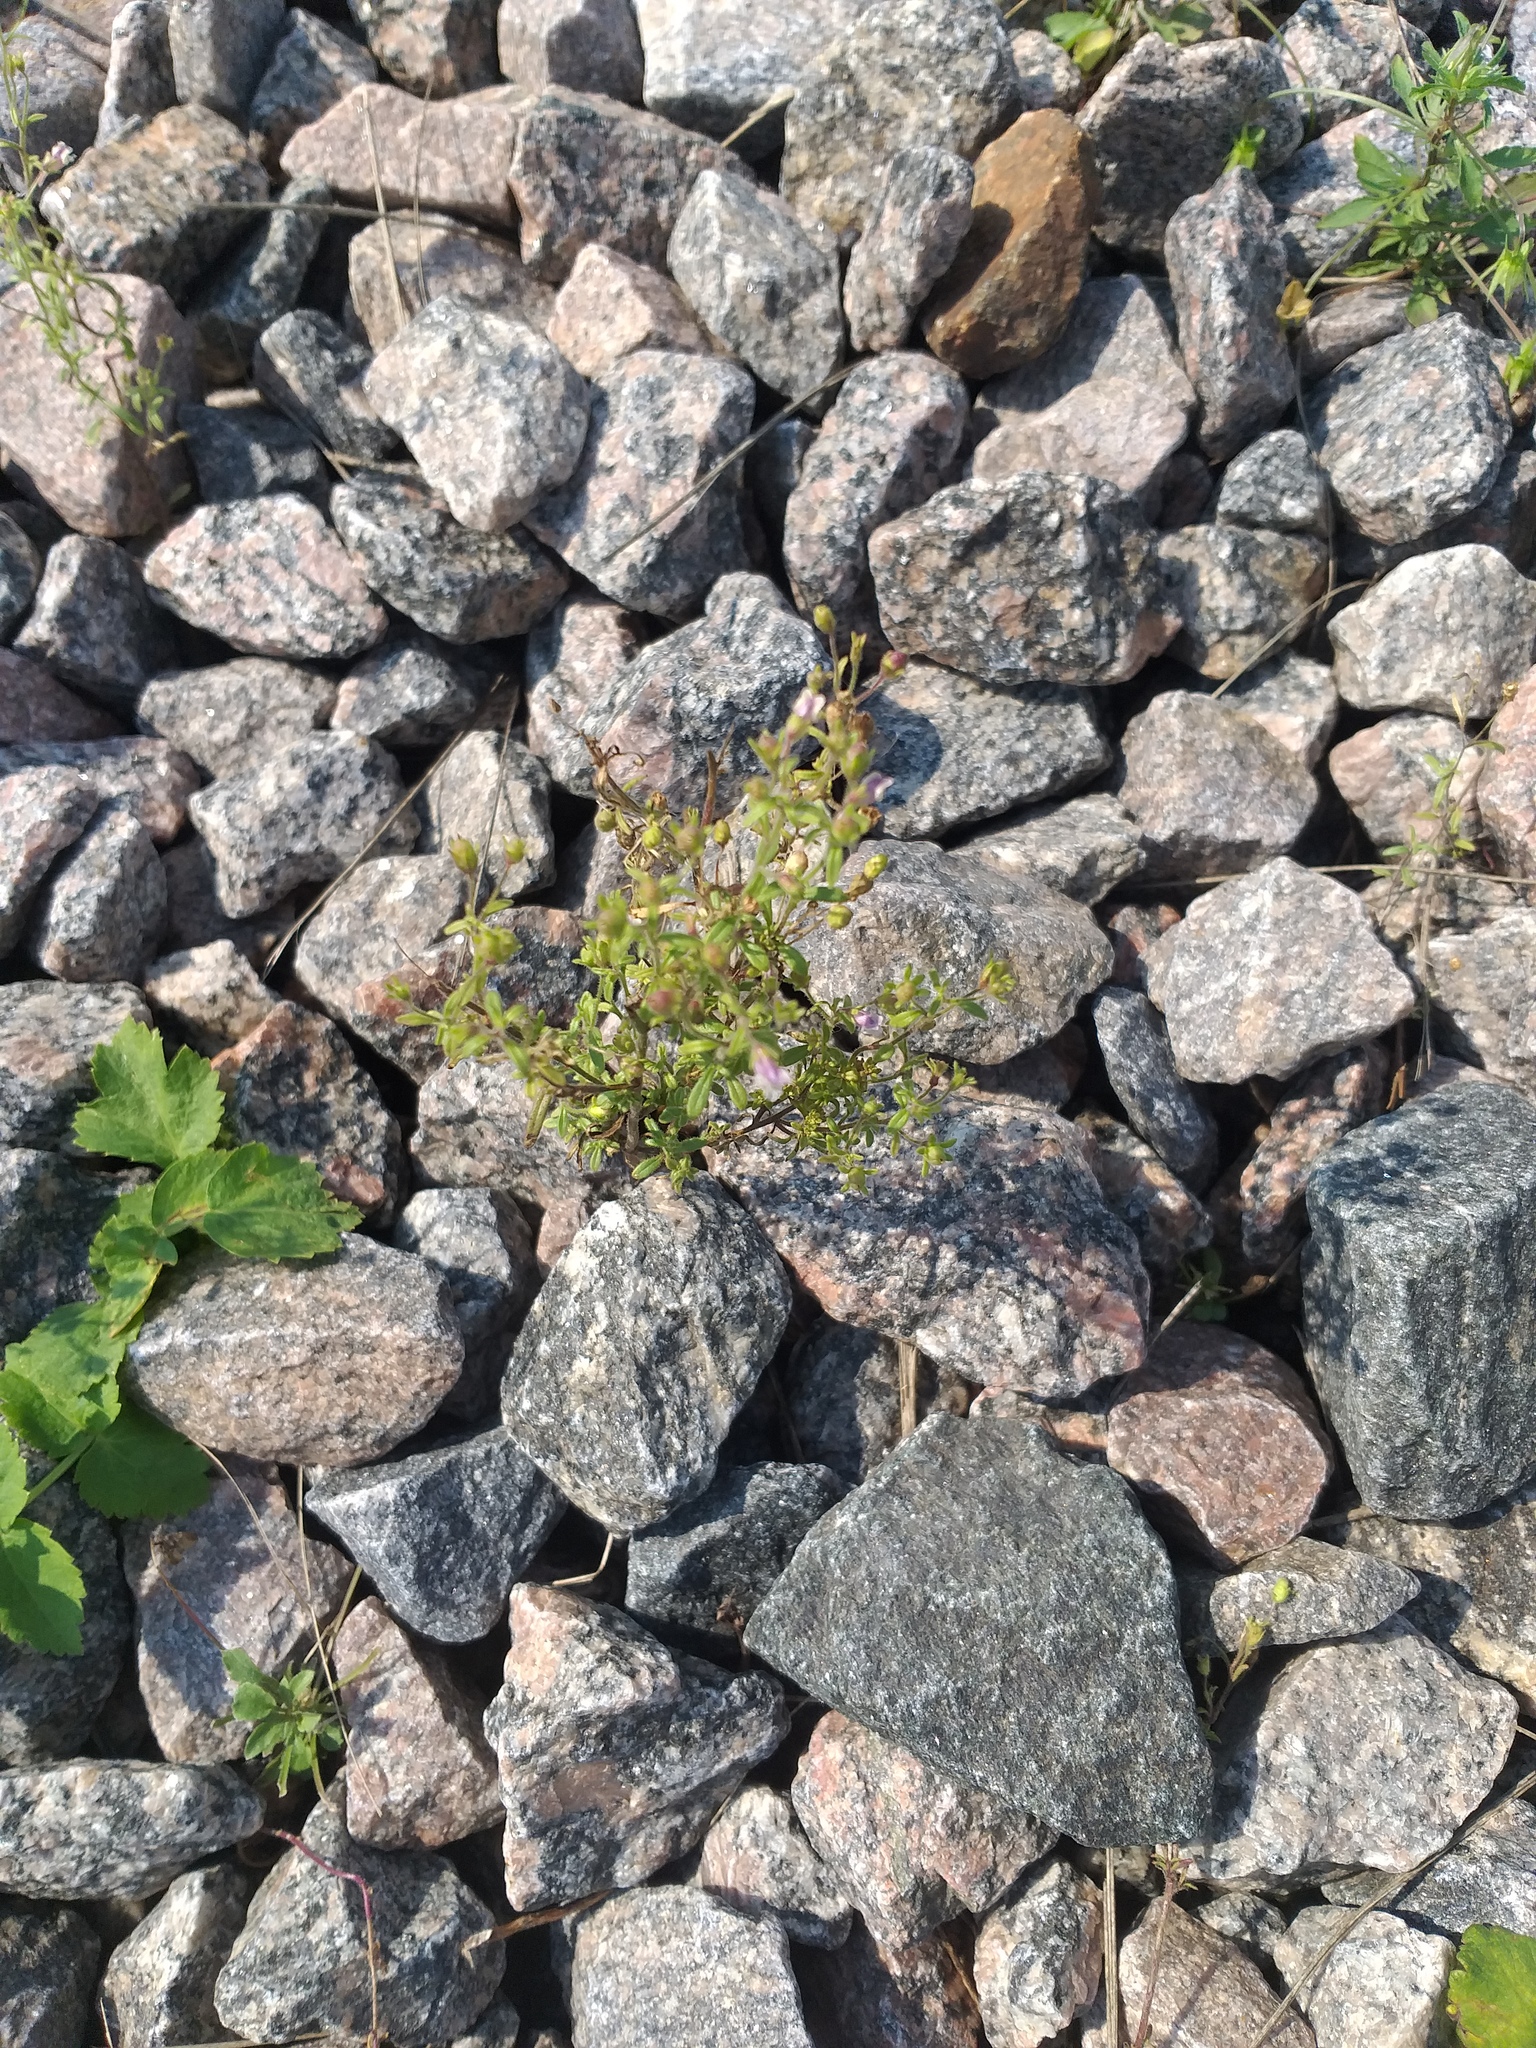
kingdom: Plantae
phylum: Tracheophyta
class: Magnoliopsida
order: Lamiales
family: Plantaginaceae
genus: Chaenorhinum
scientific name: Chaenorhinum minus
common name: Dwarf snapdragon
